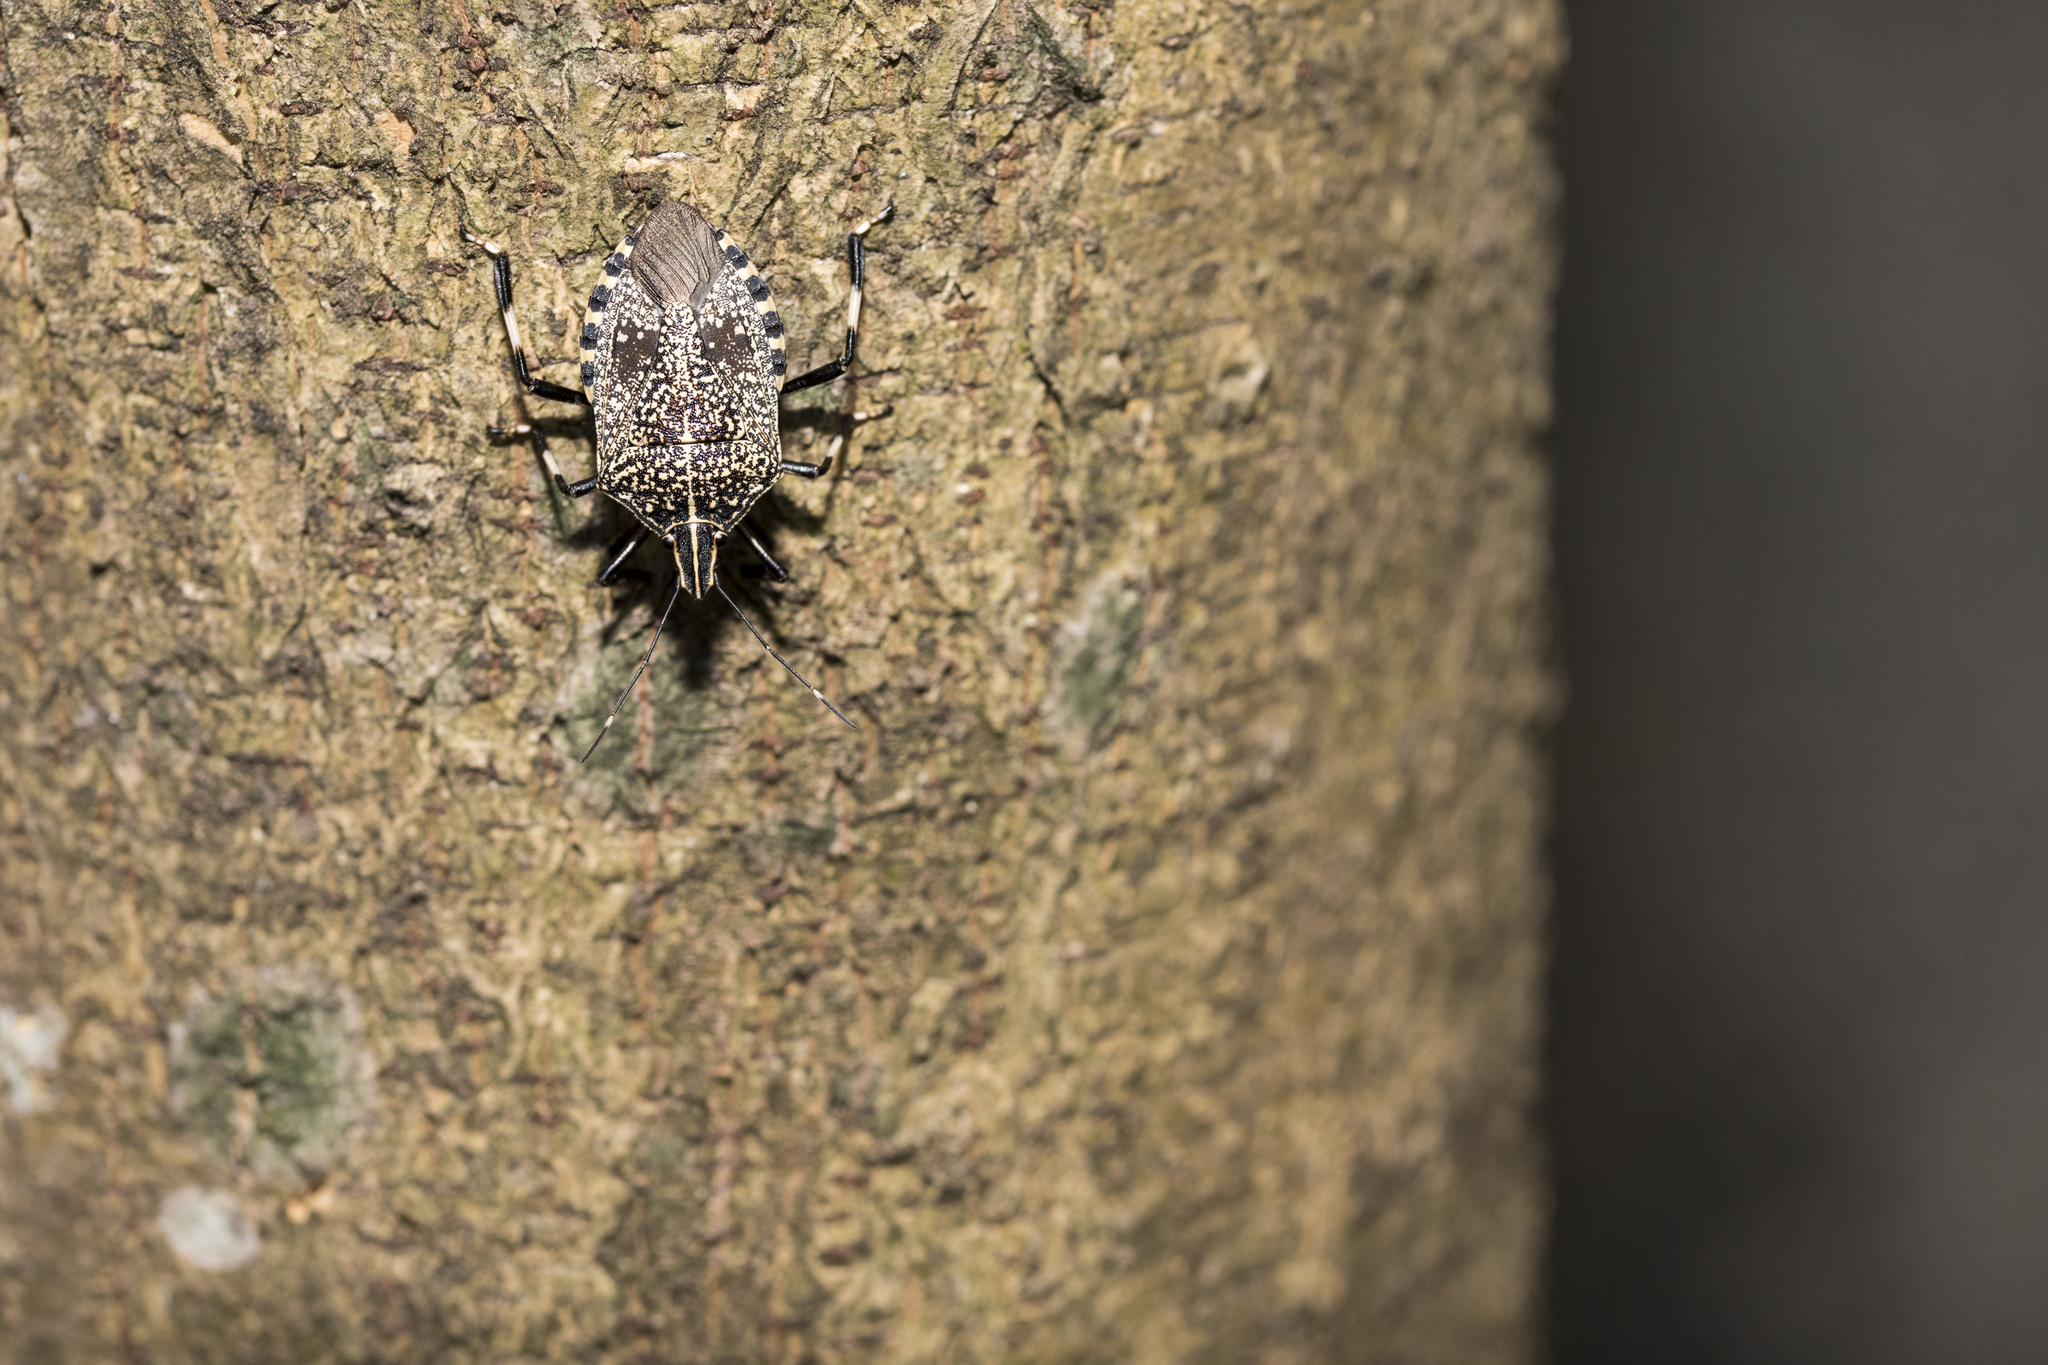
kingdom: Animalia
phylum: Arthropoda
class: Insecta
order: Hemiptera
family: Pentatomidae
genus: Erthesina
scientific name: Erthesina fullo
